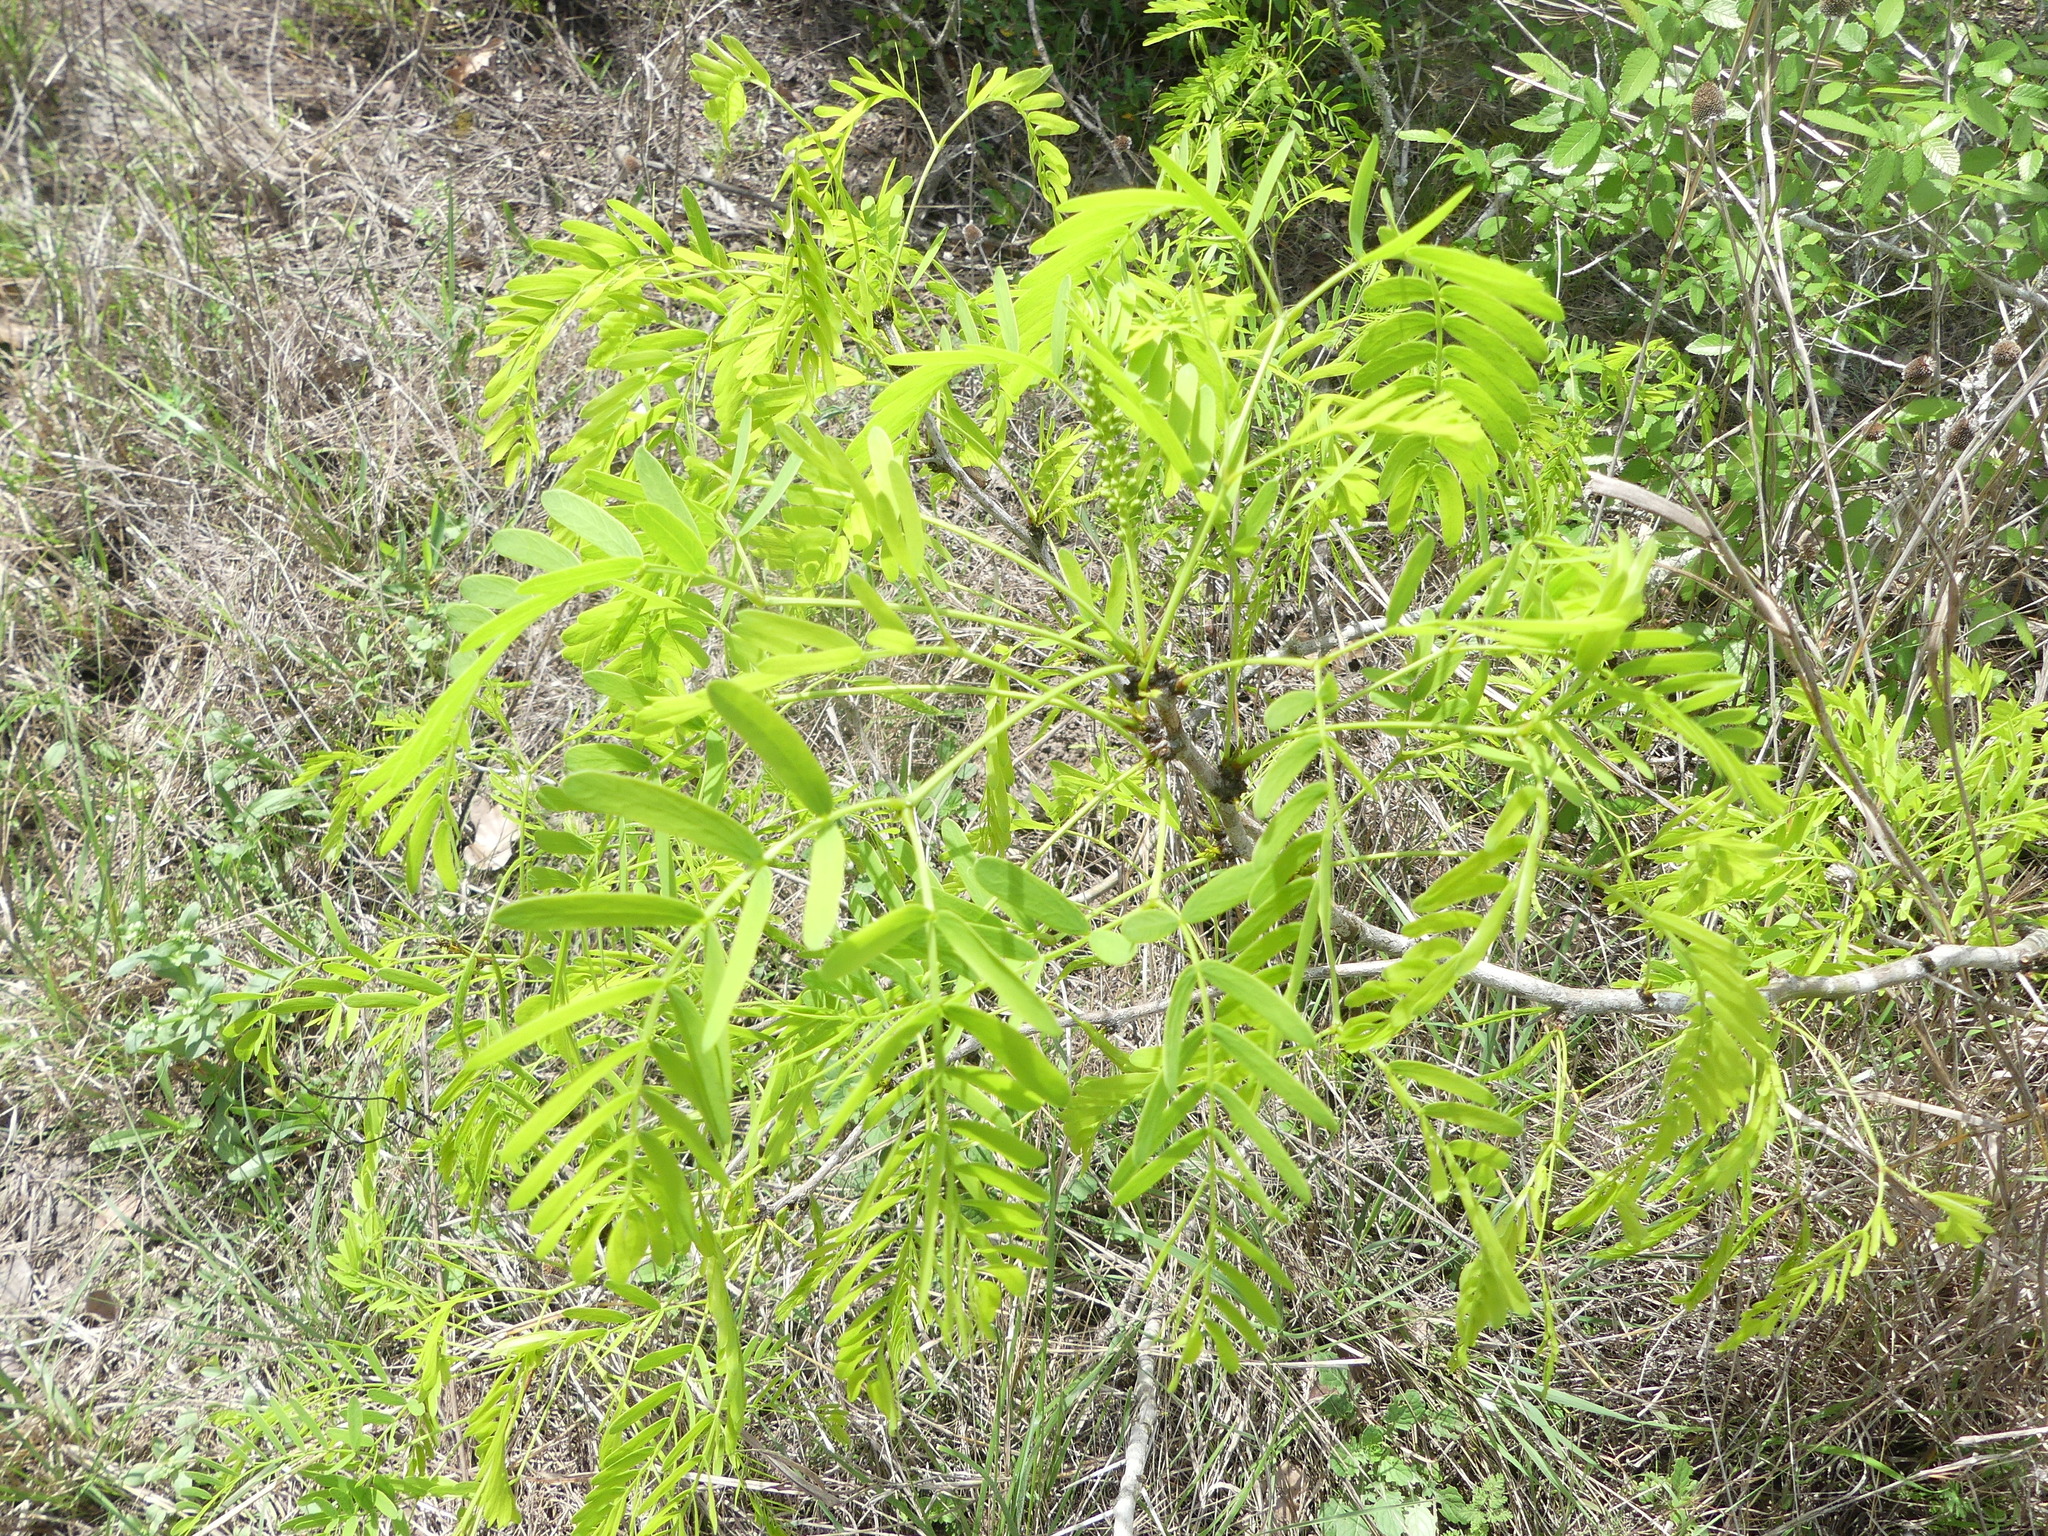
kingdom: Plantae
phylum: Tracheophyta
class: Magnoliopsida
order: Fabales
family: Fabaceae
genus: Prosopis
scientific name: Prosopis glandulosa
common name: Honey mesquite
